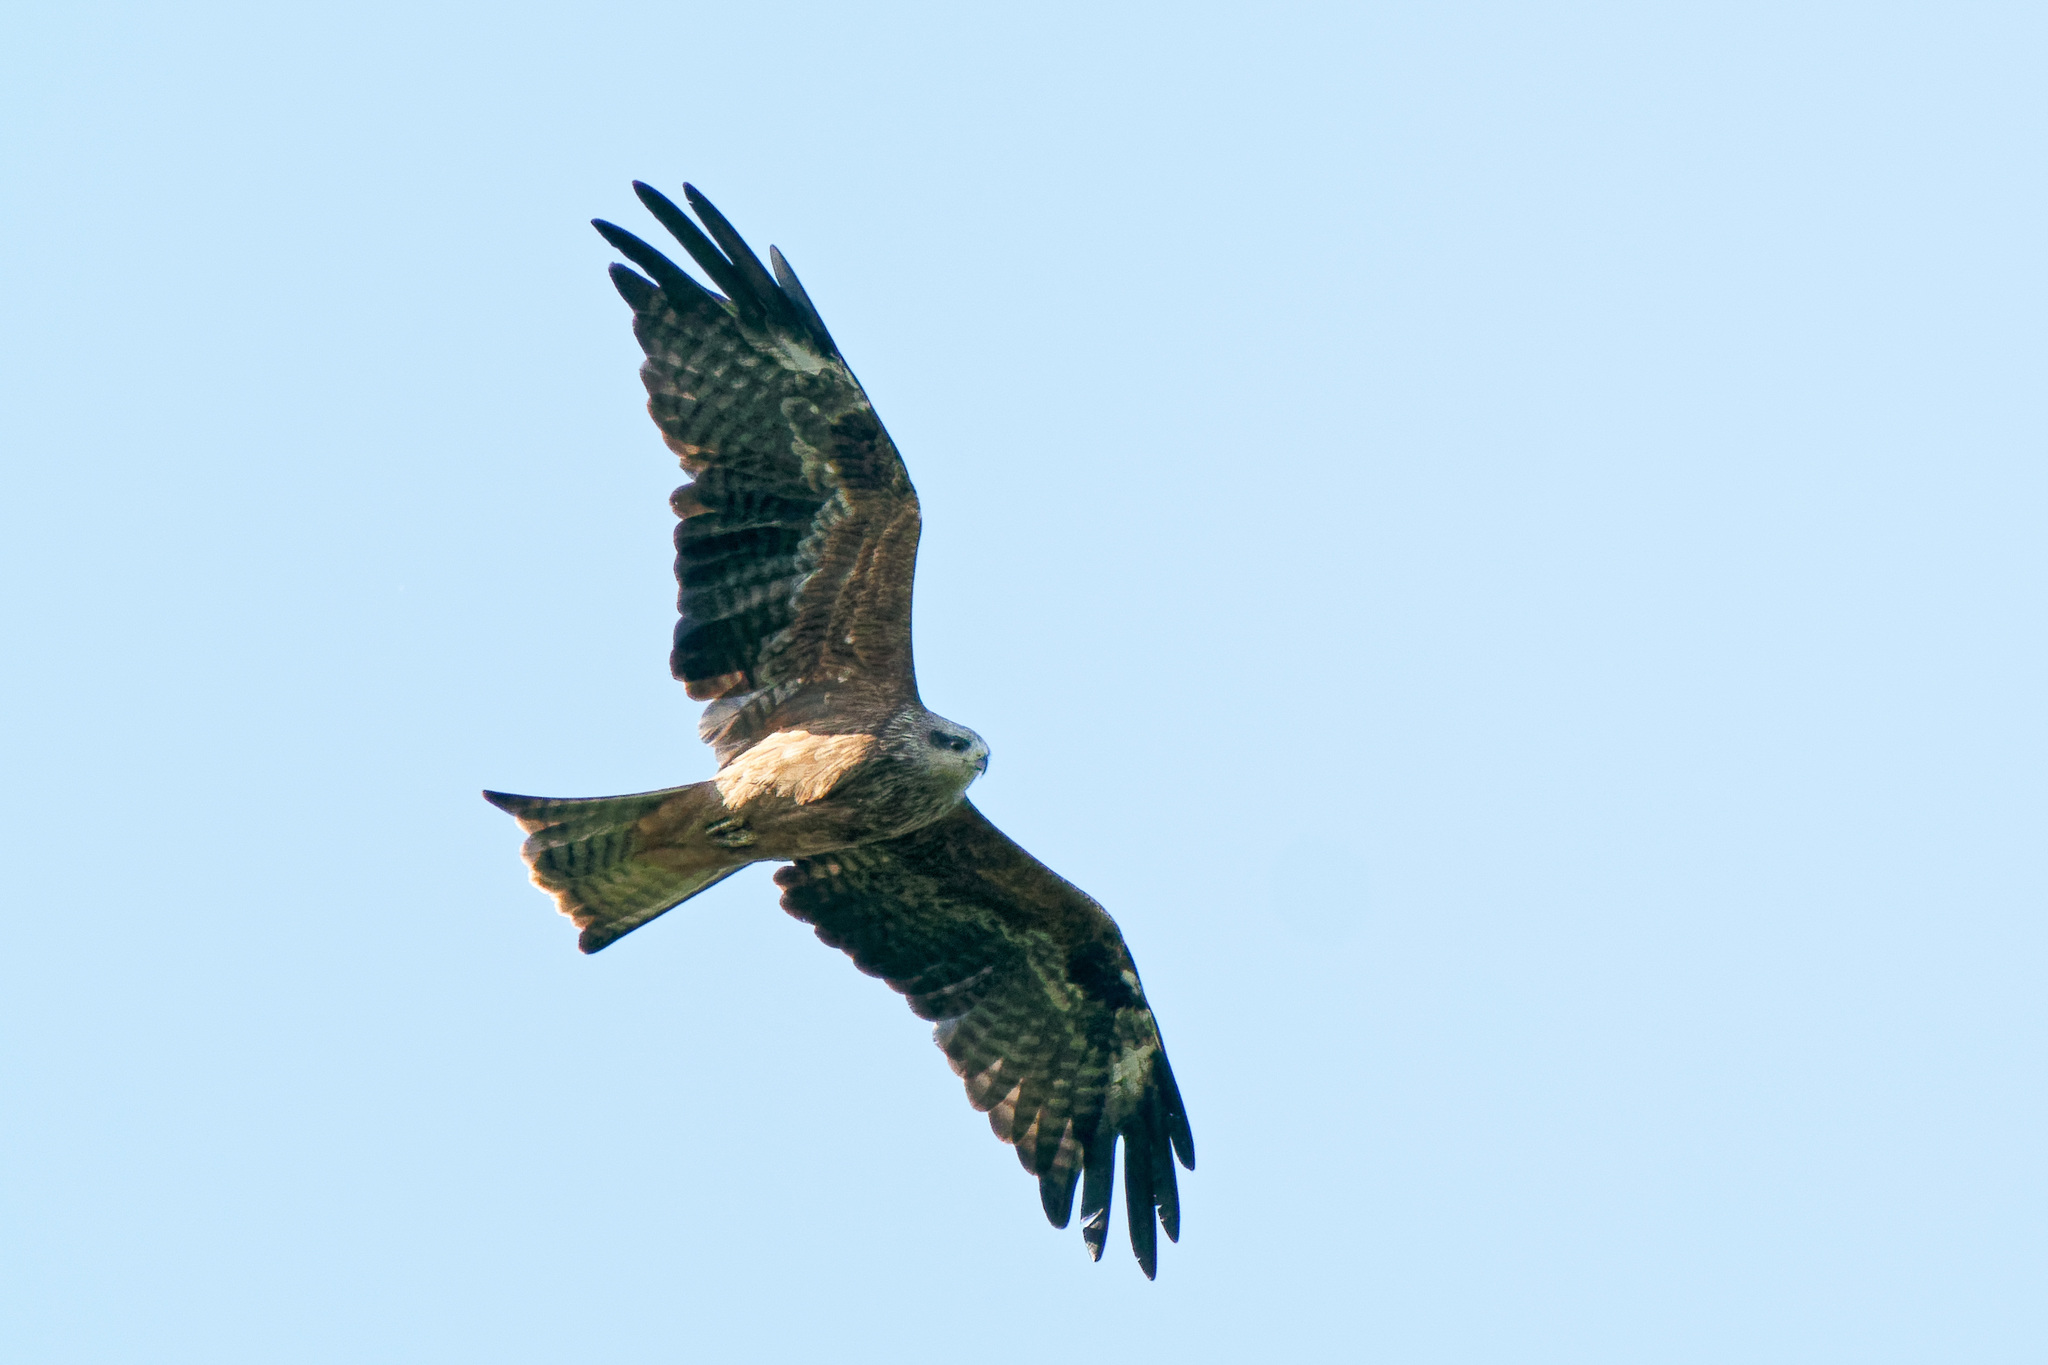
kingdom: Animalia
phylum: Chordata
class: Aves
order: Accipitriformes
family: Accipitridae
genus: Milvus
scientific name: Milvus migrans
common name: Black kite
